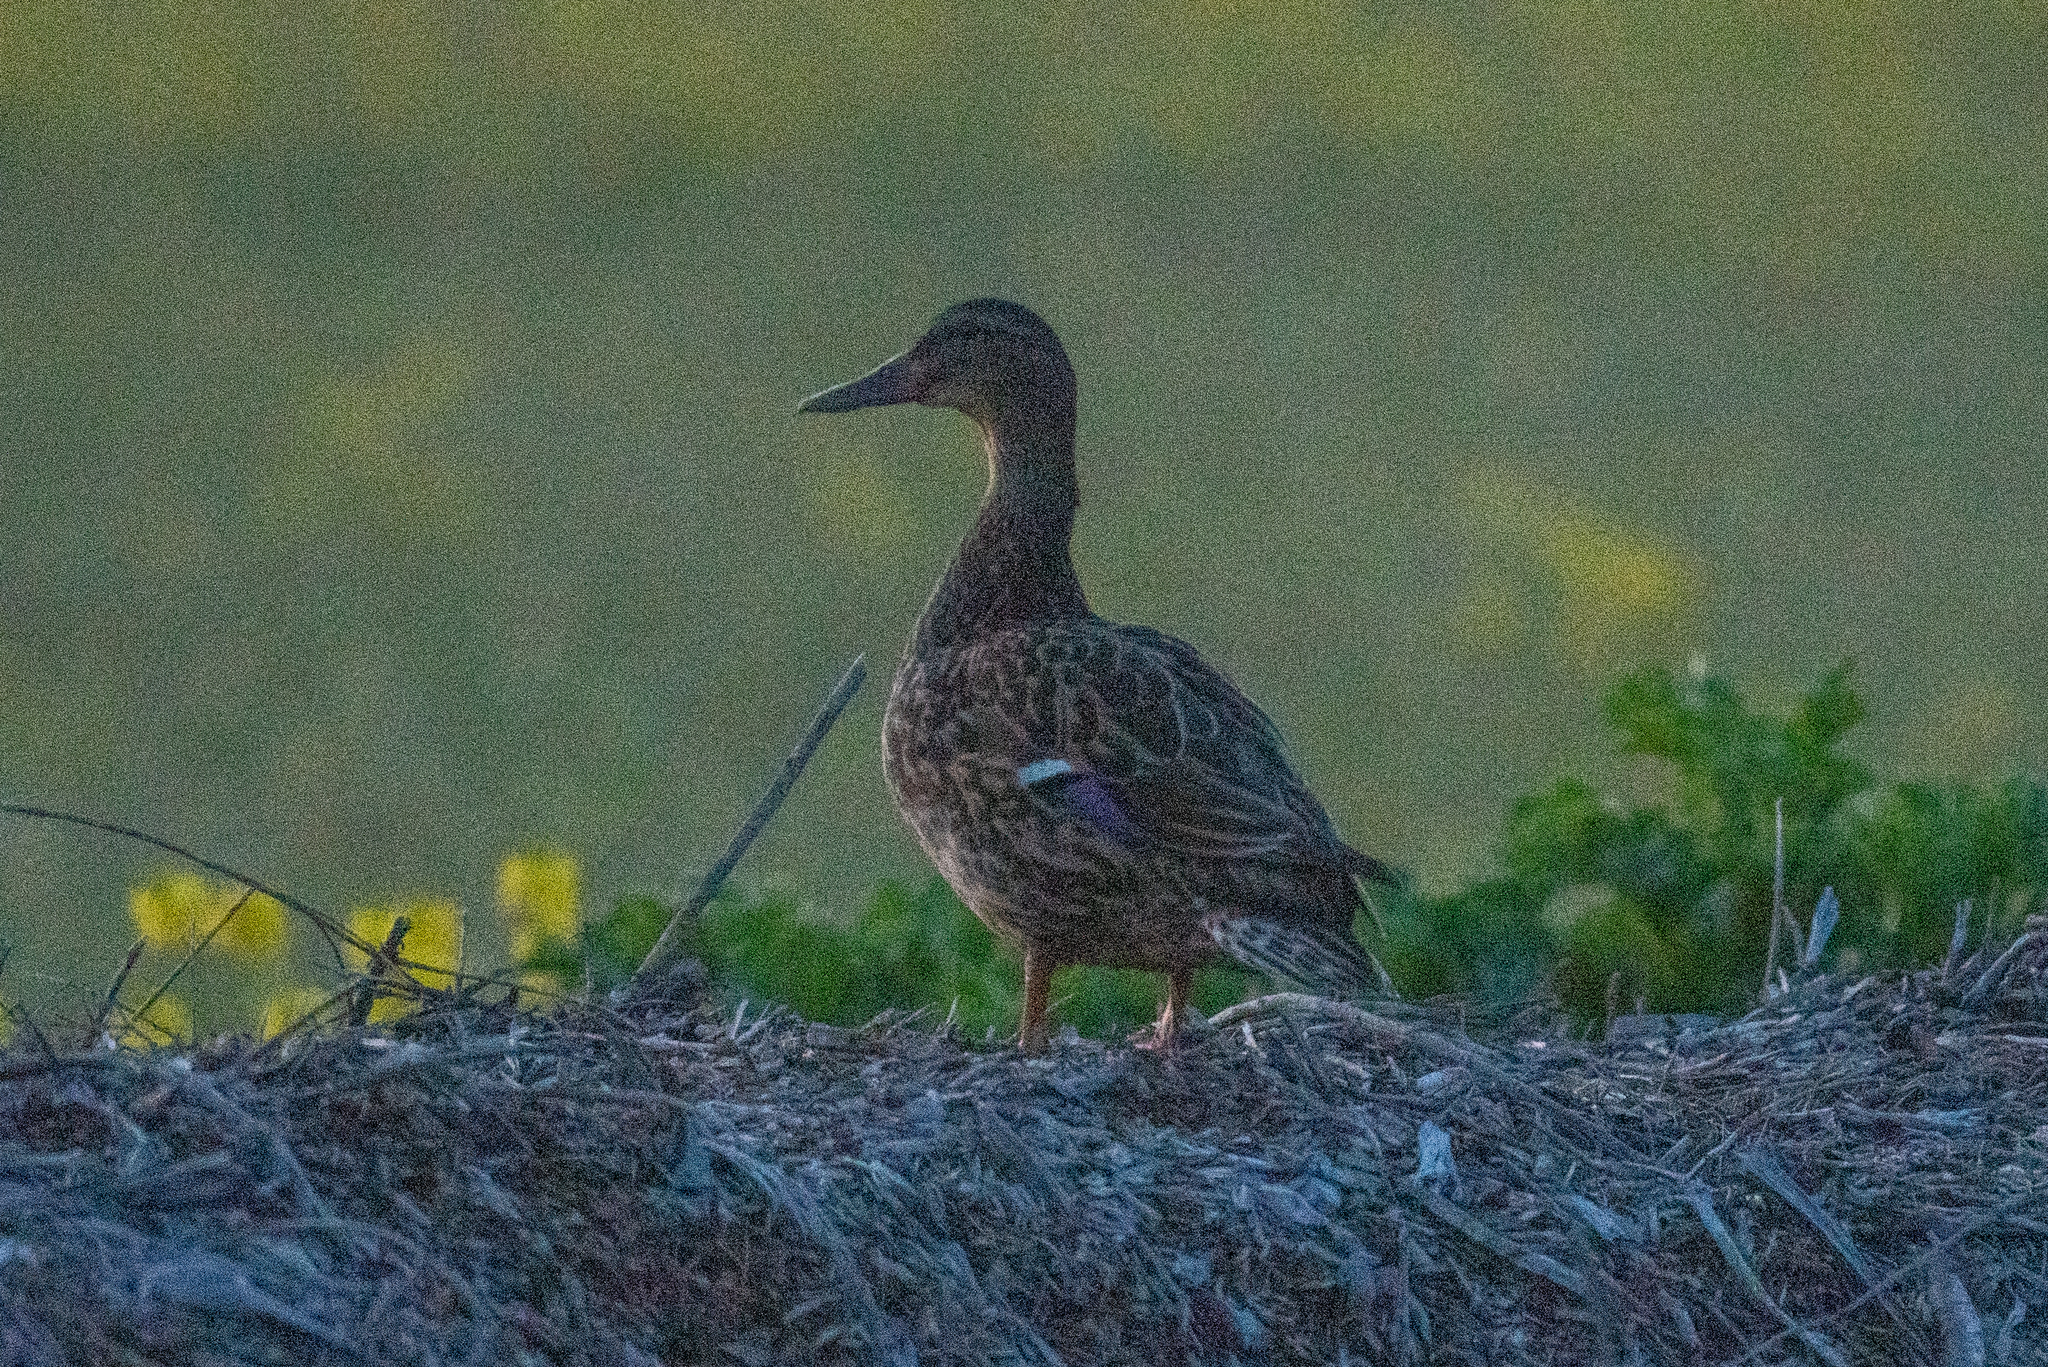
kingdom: Animalia
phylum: Chordata
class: Aves
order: Anseriformes
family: Anatidae
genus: Anas
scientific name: Anas platyrhynchos
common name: Mallard
